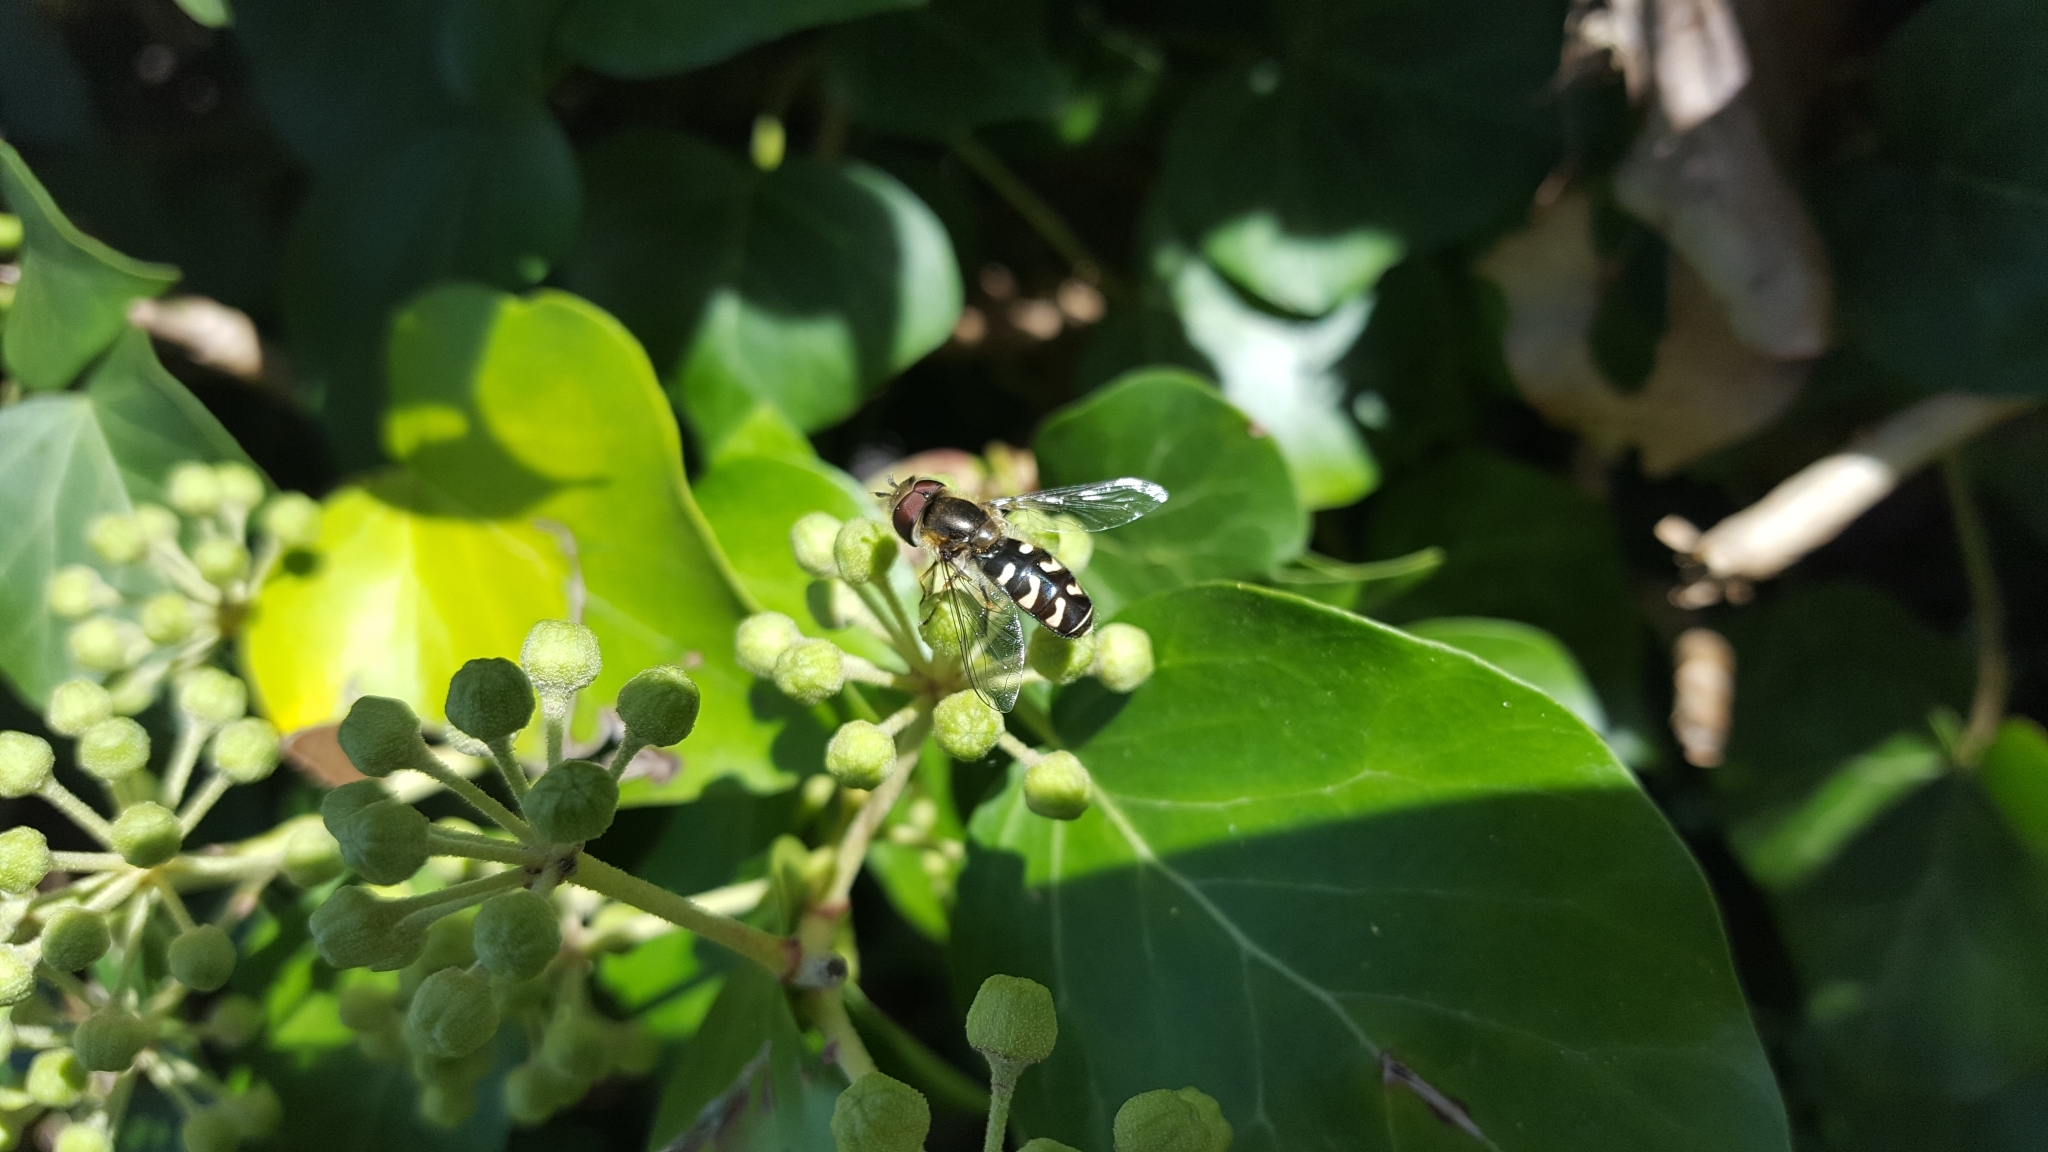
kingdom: Animalia
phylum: Arthropoda
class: Insecta
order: Diptera
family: Syrphidae
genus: Scaeva
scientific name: Scaeva pyrastri
